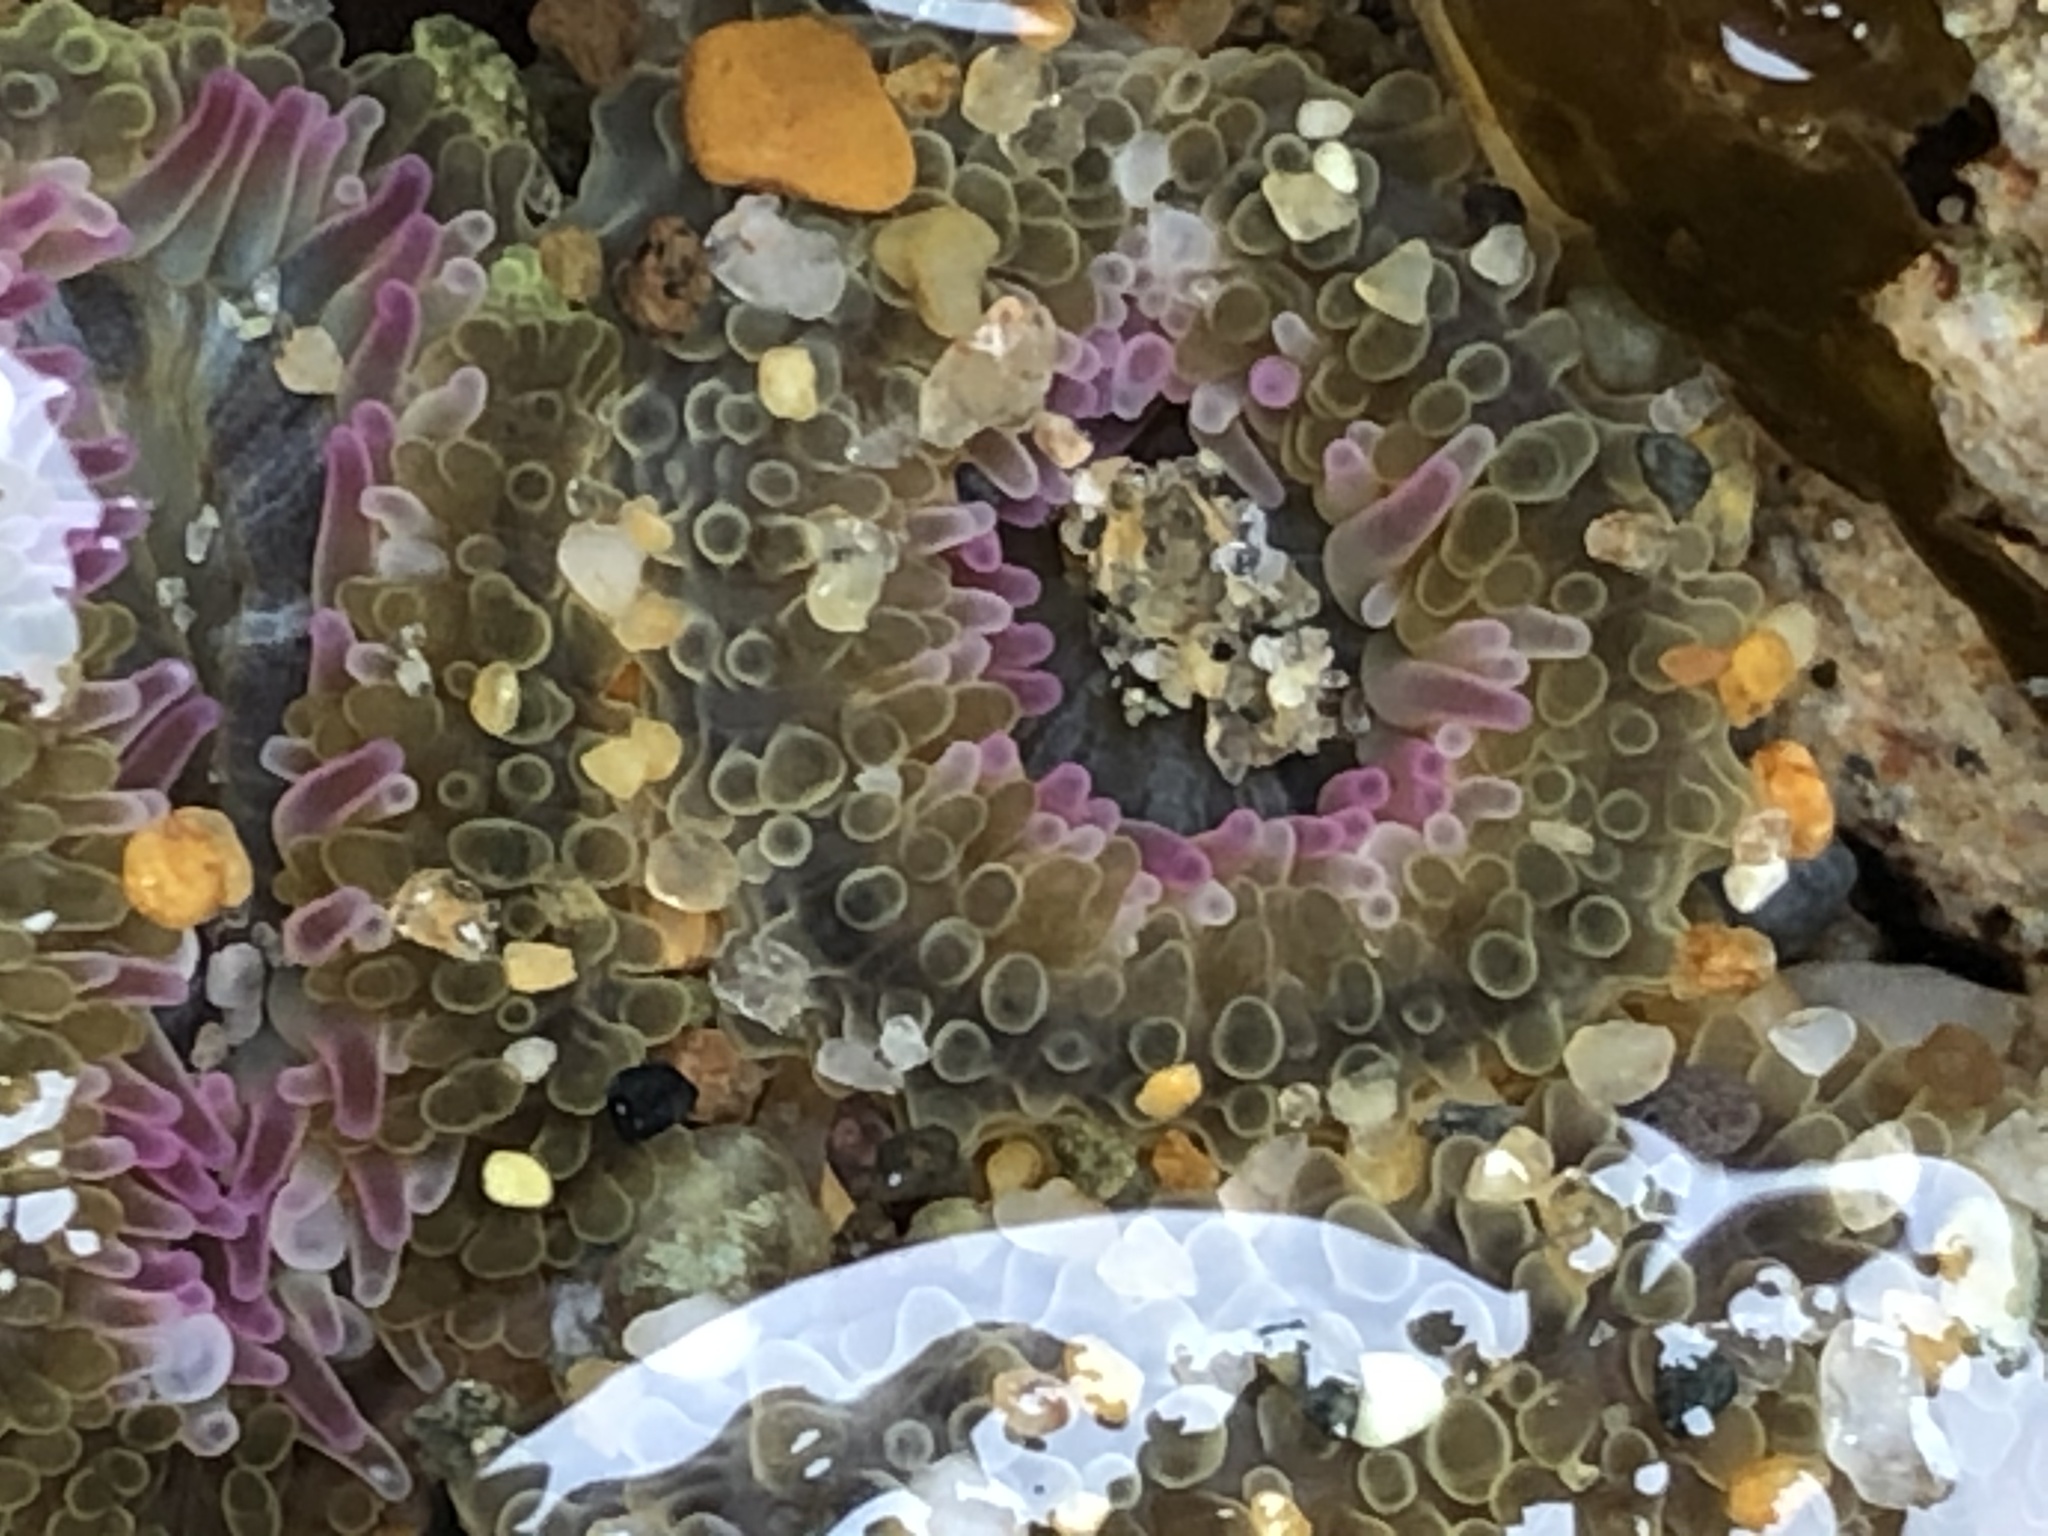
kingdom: Animalia
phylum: Cnidaria
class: Anthozoa
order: Actiniaria
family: Actiniidae
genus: Anthopleura
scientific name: Anthopleura elegantissima
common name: Clonal anemone
